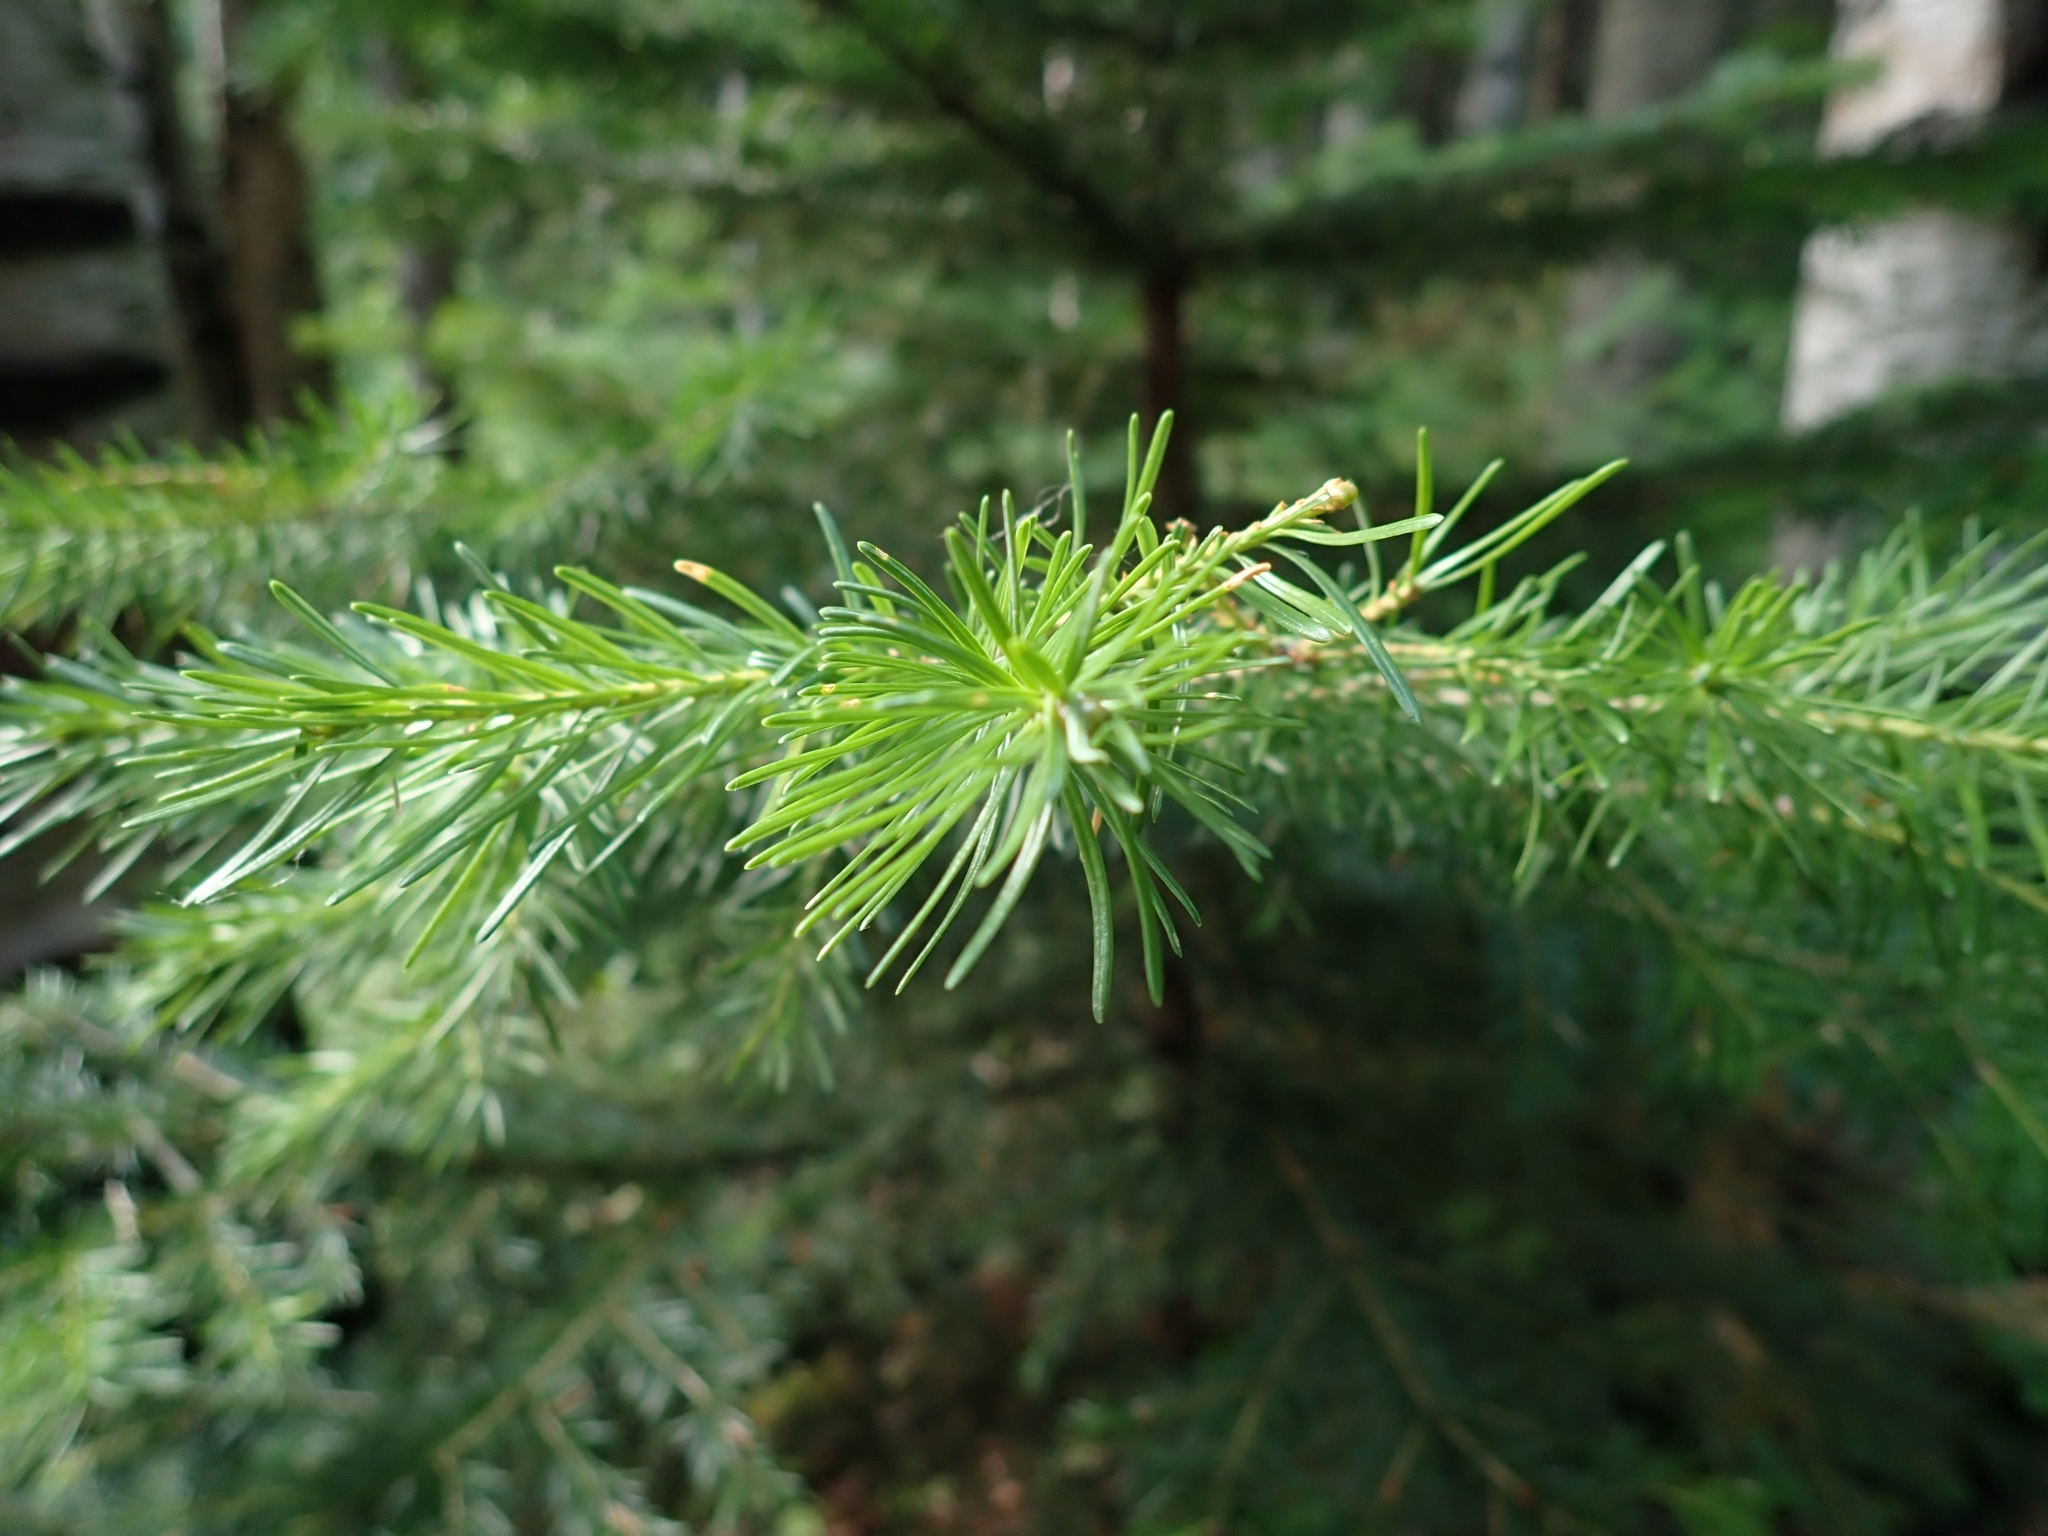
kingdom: Plantae
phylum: Tracheophyta
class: Pinopsida
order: Pinales
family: Pinaceae
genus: Abies
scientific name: Abies lasiocarpa
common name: Subalpine fir
